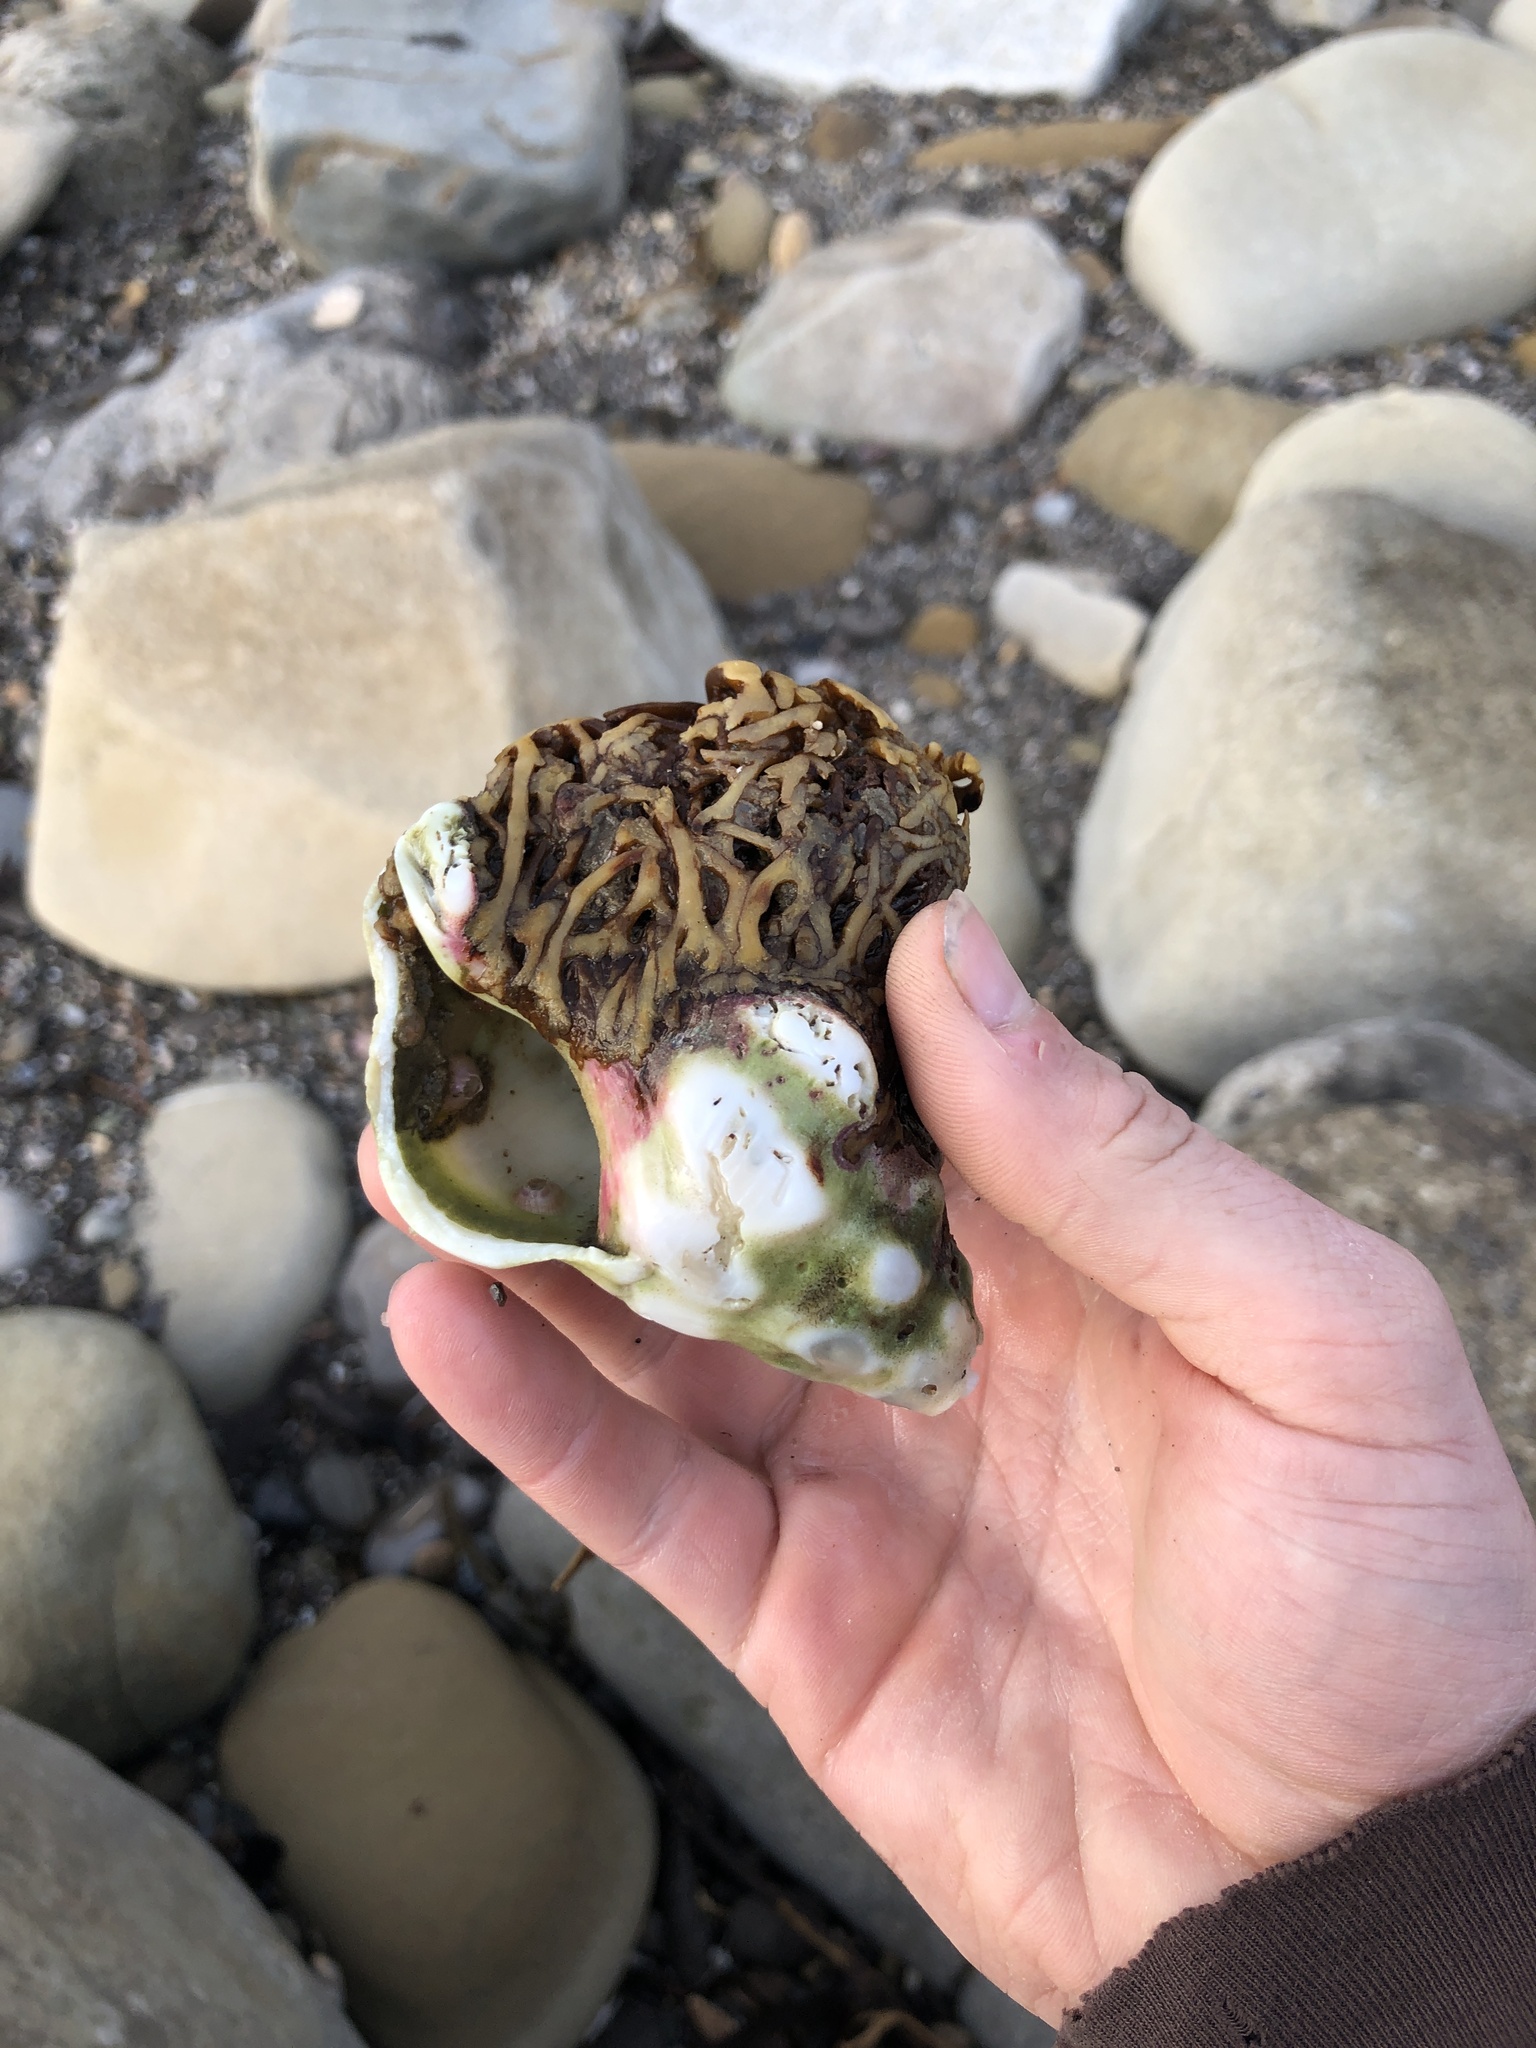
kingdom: Animalia
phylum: Mollusca
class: Gastropoda
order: Neogastropoda
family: Austrosiphonidae
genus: Kelletia
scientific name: Kelletia kelletii
